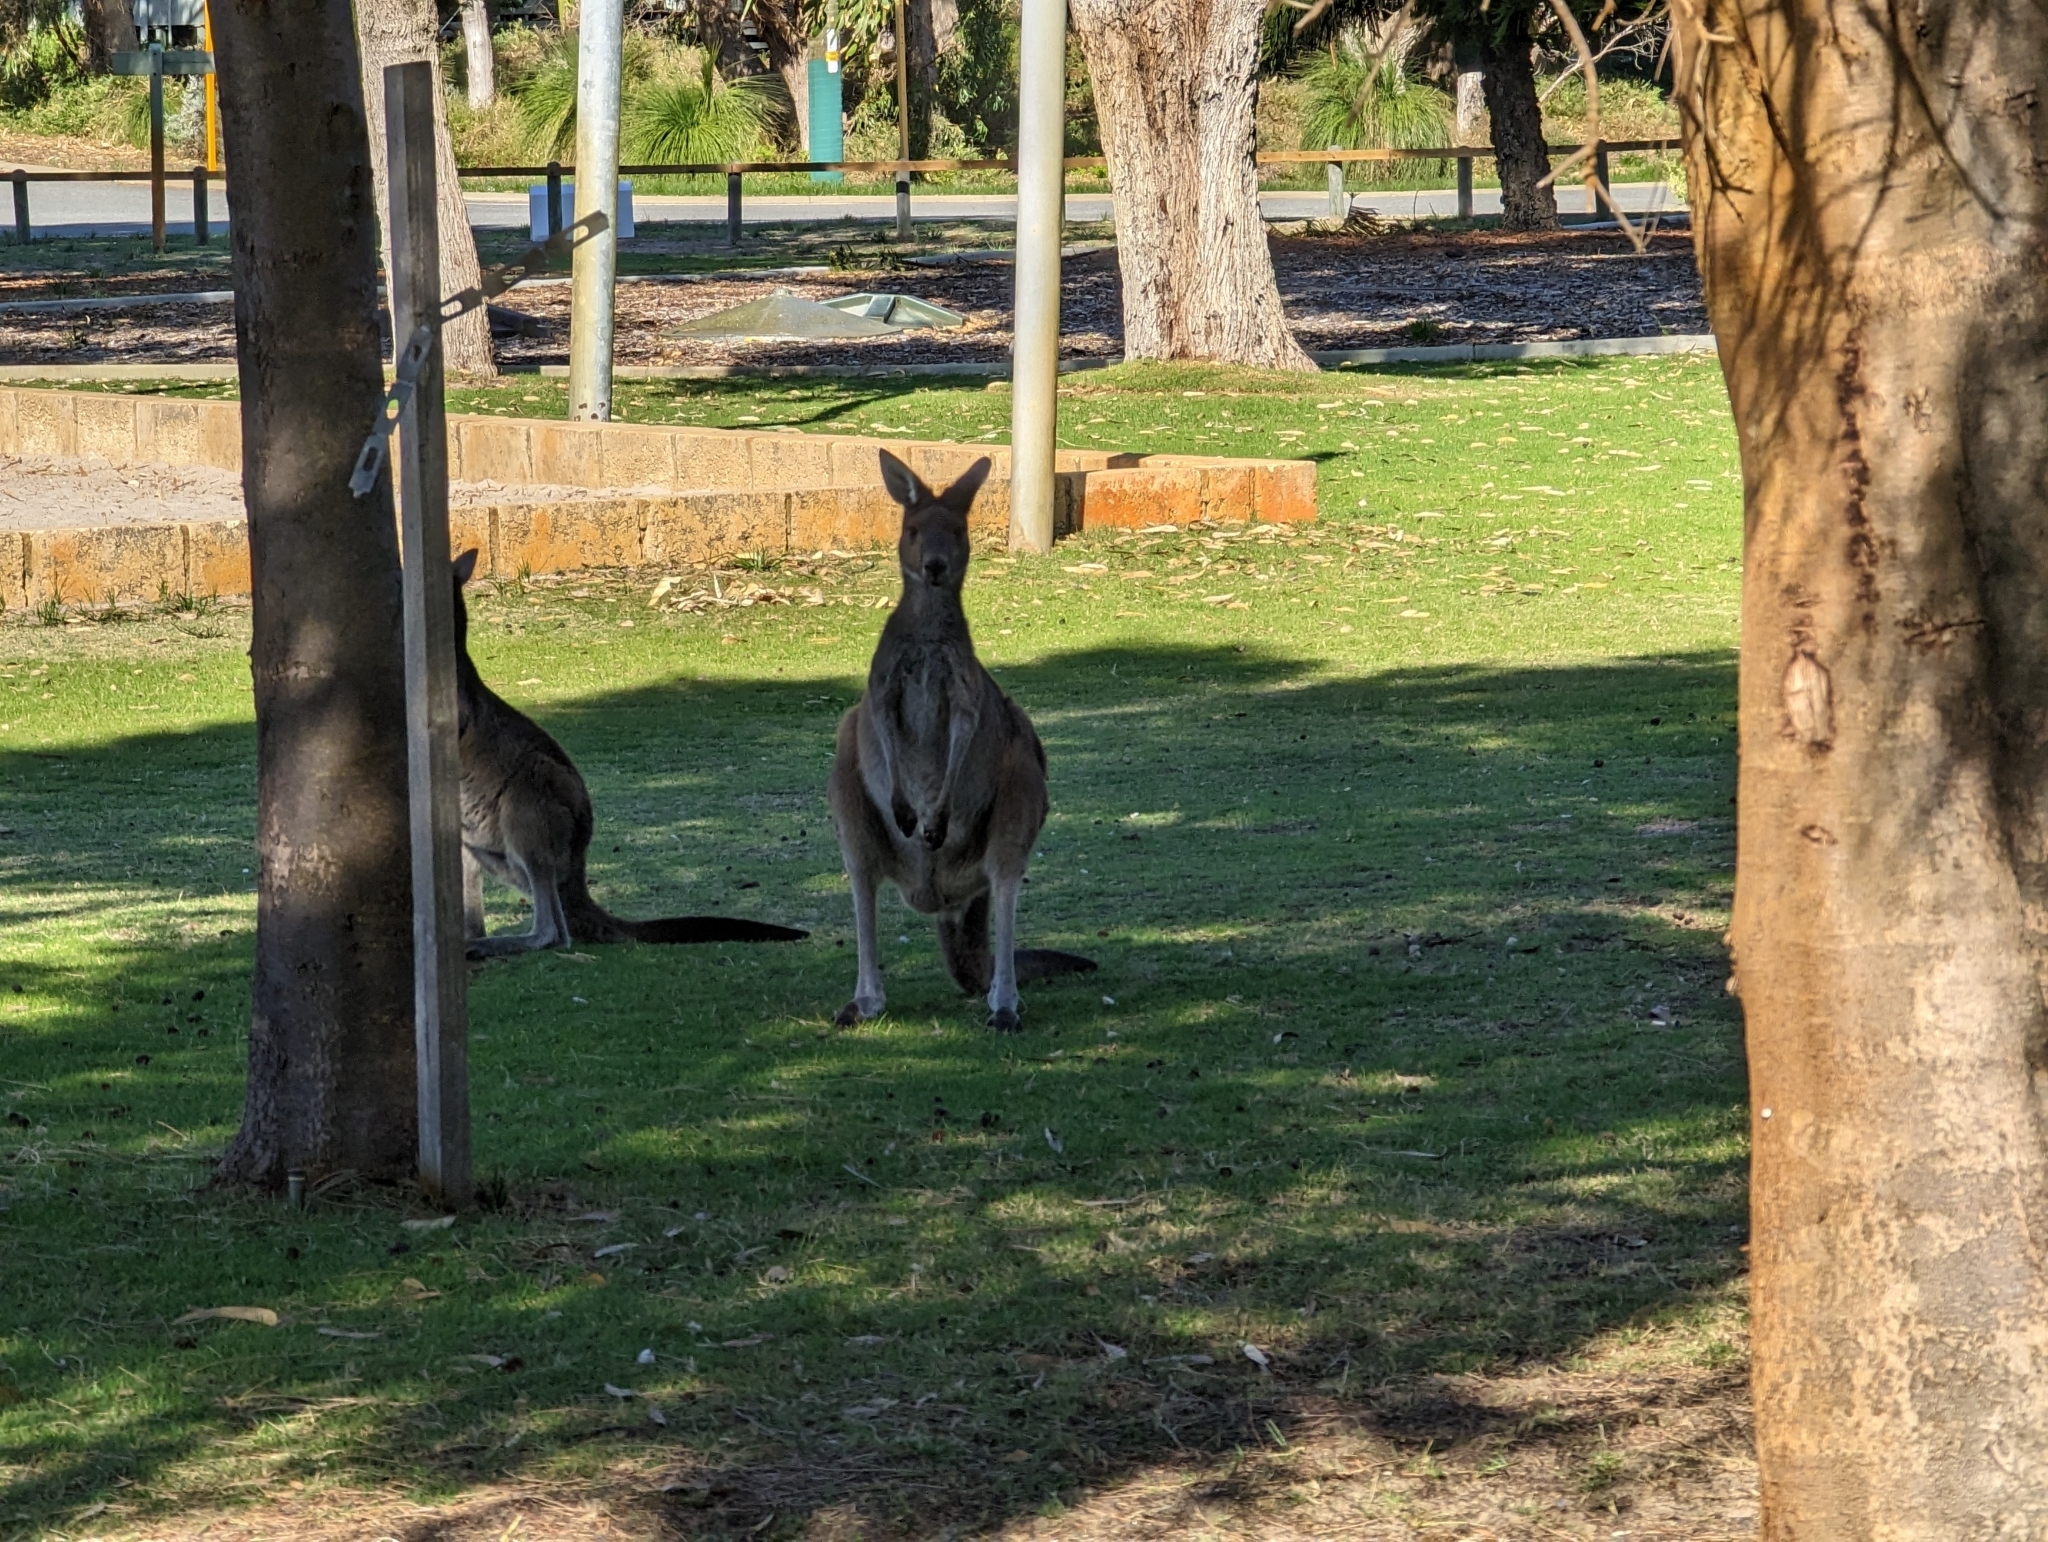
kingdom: Animalia
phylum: Chordata
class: Mammalia
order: Diprotodontia
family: Macropodidae
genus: Macropus
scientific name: Macropus fuliginosus
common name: Western grey kangaroo
